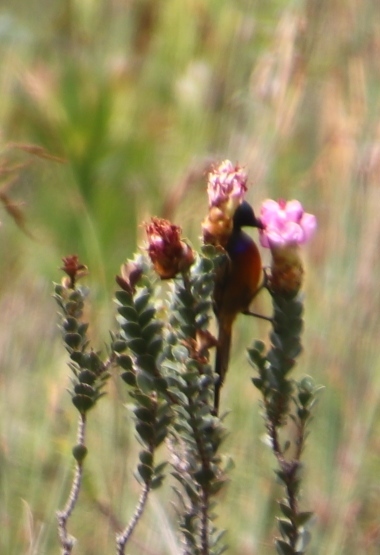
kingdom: Plantae
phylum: Tracheophyta
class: Magnoliopsida
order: Myrtales
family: Penaeaceae
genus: Saltera
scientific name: Saltera sarcocolla
